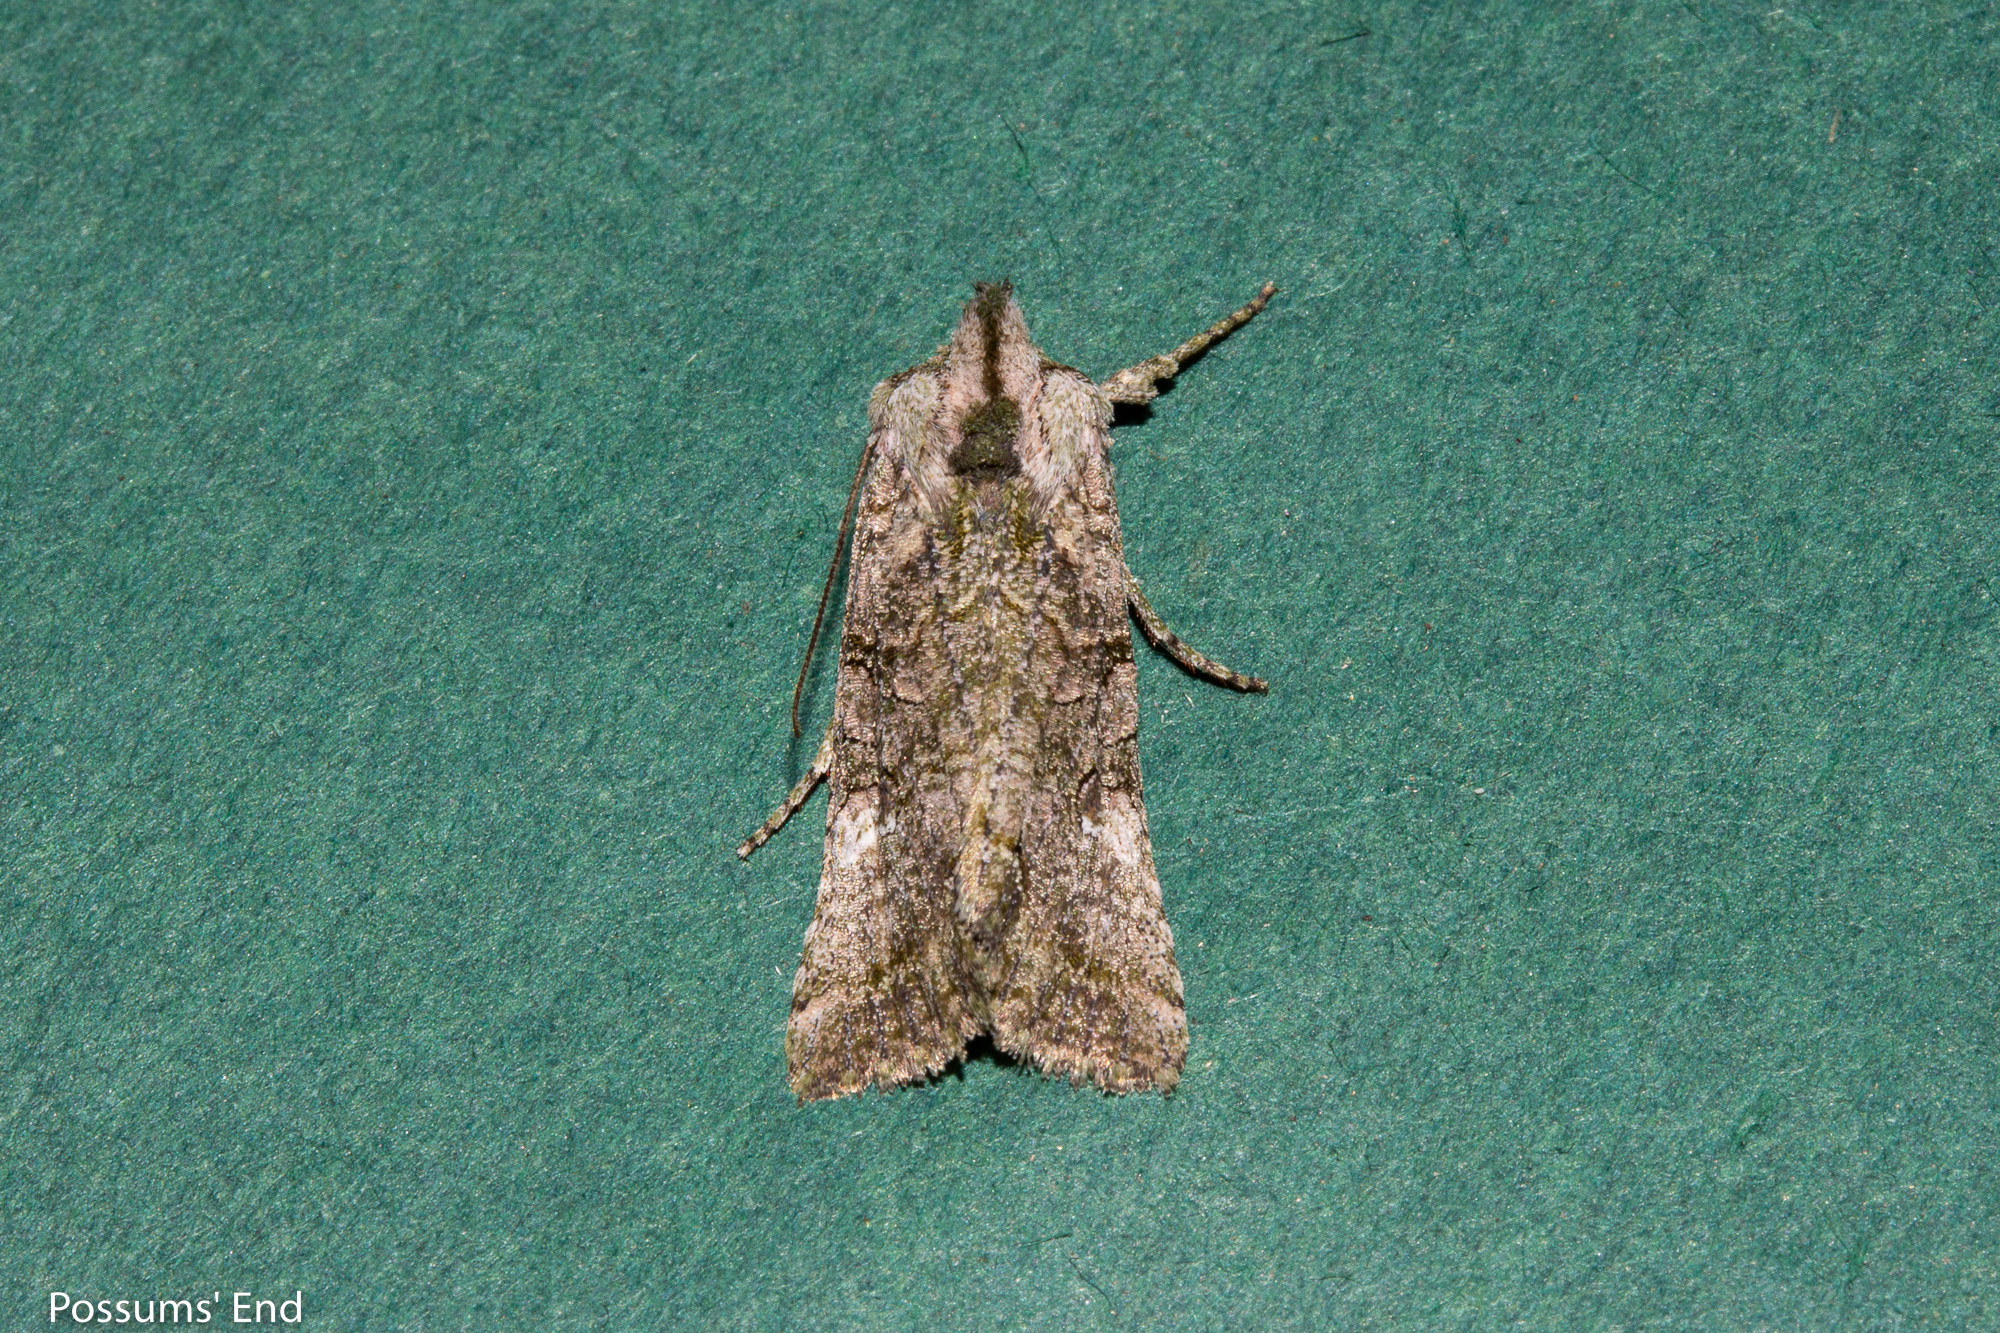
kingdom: Animalia
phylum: Arthropoda
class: Insecta
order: Lepidoptera
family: Noctuidae
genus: Meterana
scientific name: Meterana levis
